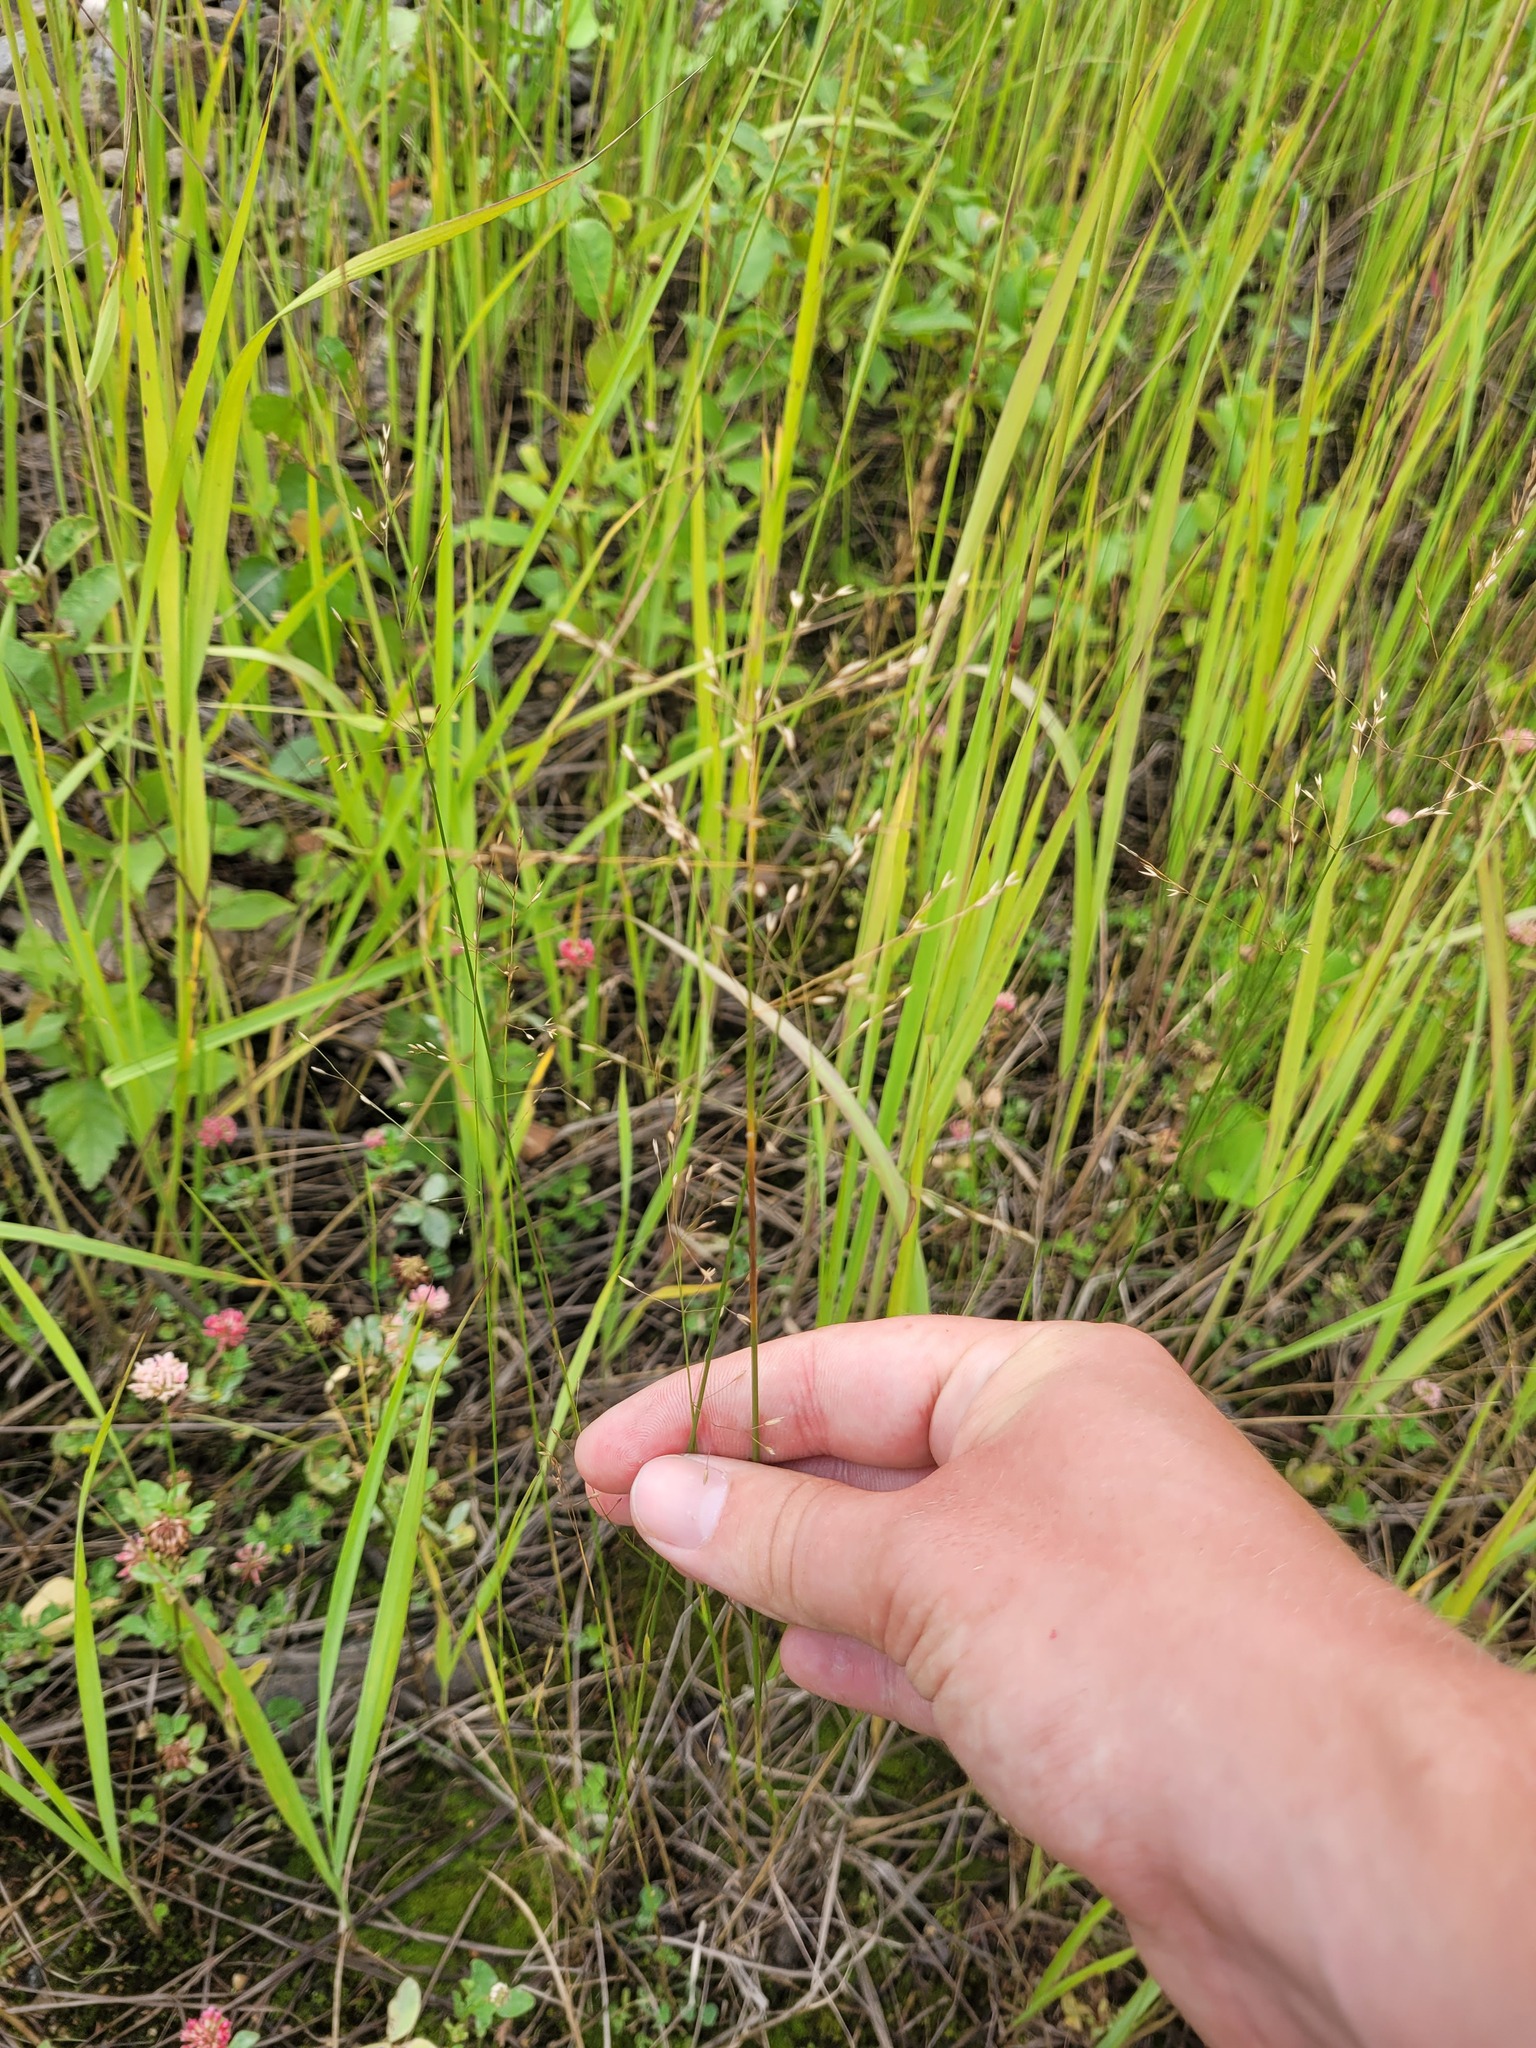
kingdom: Plantae
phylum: Tracheophyta
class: Liliopsida
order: Poales
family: Poaceae
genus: Poa
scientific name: Poa palustris
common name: Swamp meadow-grass
